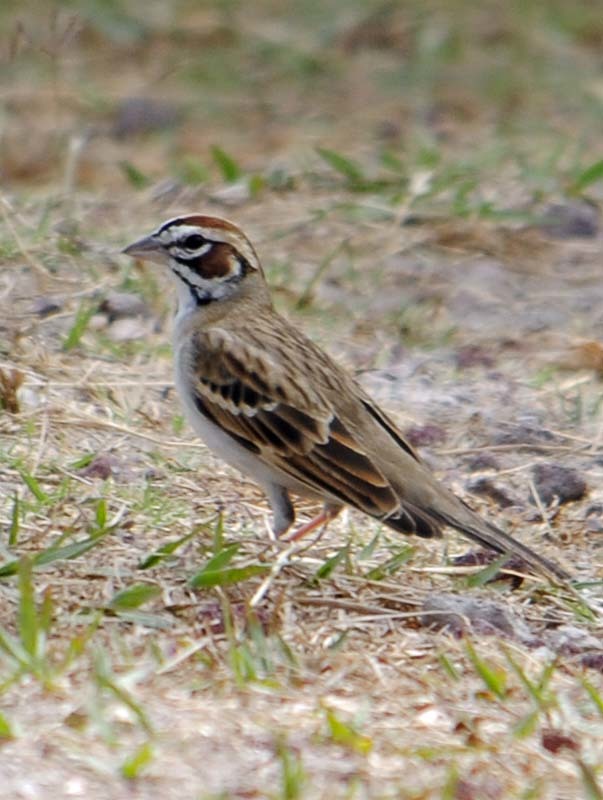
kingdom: Animalia
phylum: Chordata
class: Aves
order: Passeriformes
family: Passerellidae
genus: Chondestes
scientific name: Chondestes grammacus
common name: Lark sparrow
